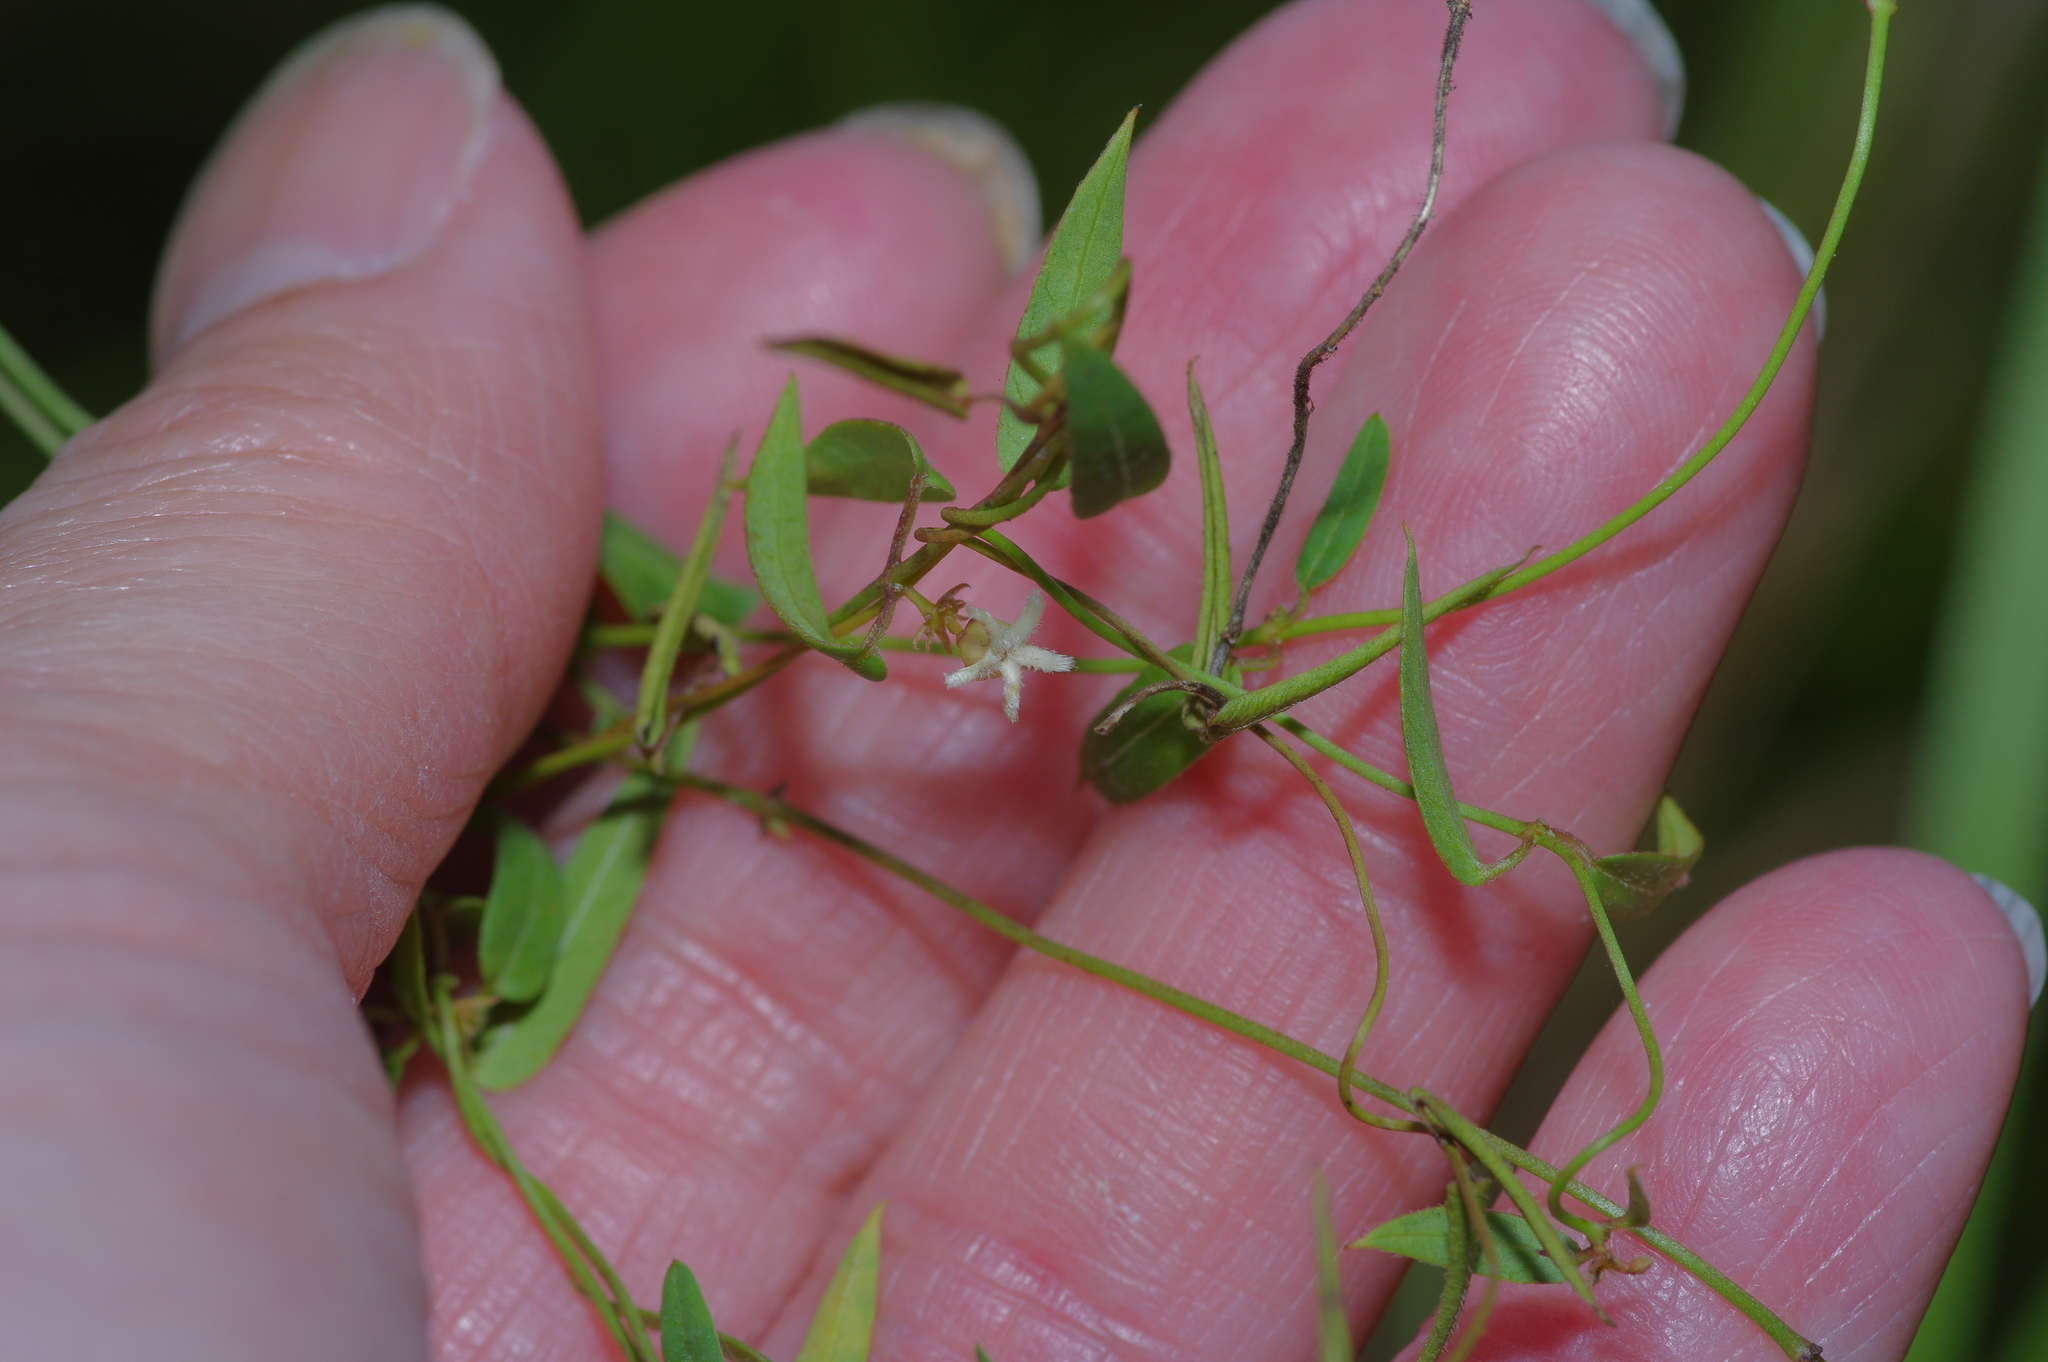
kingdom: Plantae
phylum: Tracheophyta
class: Magnoliopsida
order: Gentianales
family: Apocynaceae
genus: Metastelma
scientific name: Metastelma barbigerum
